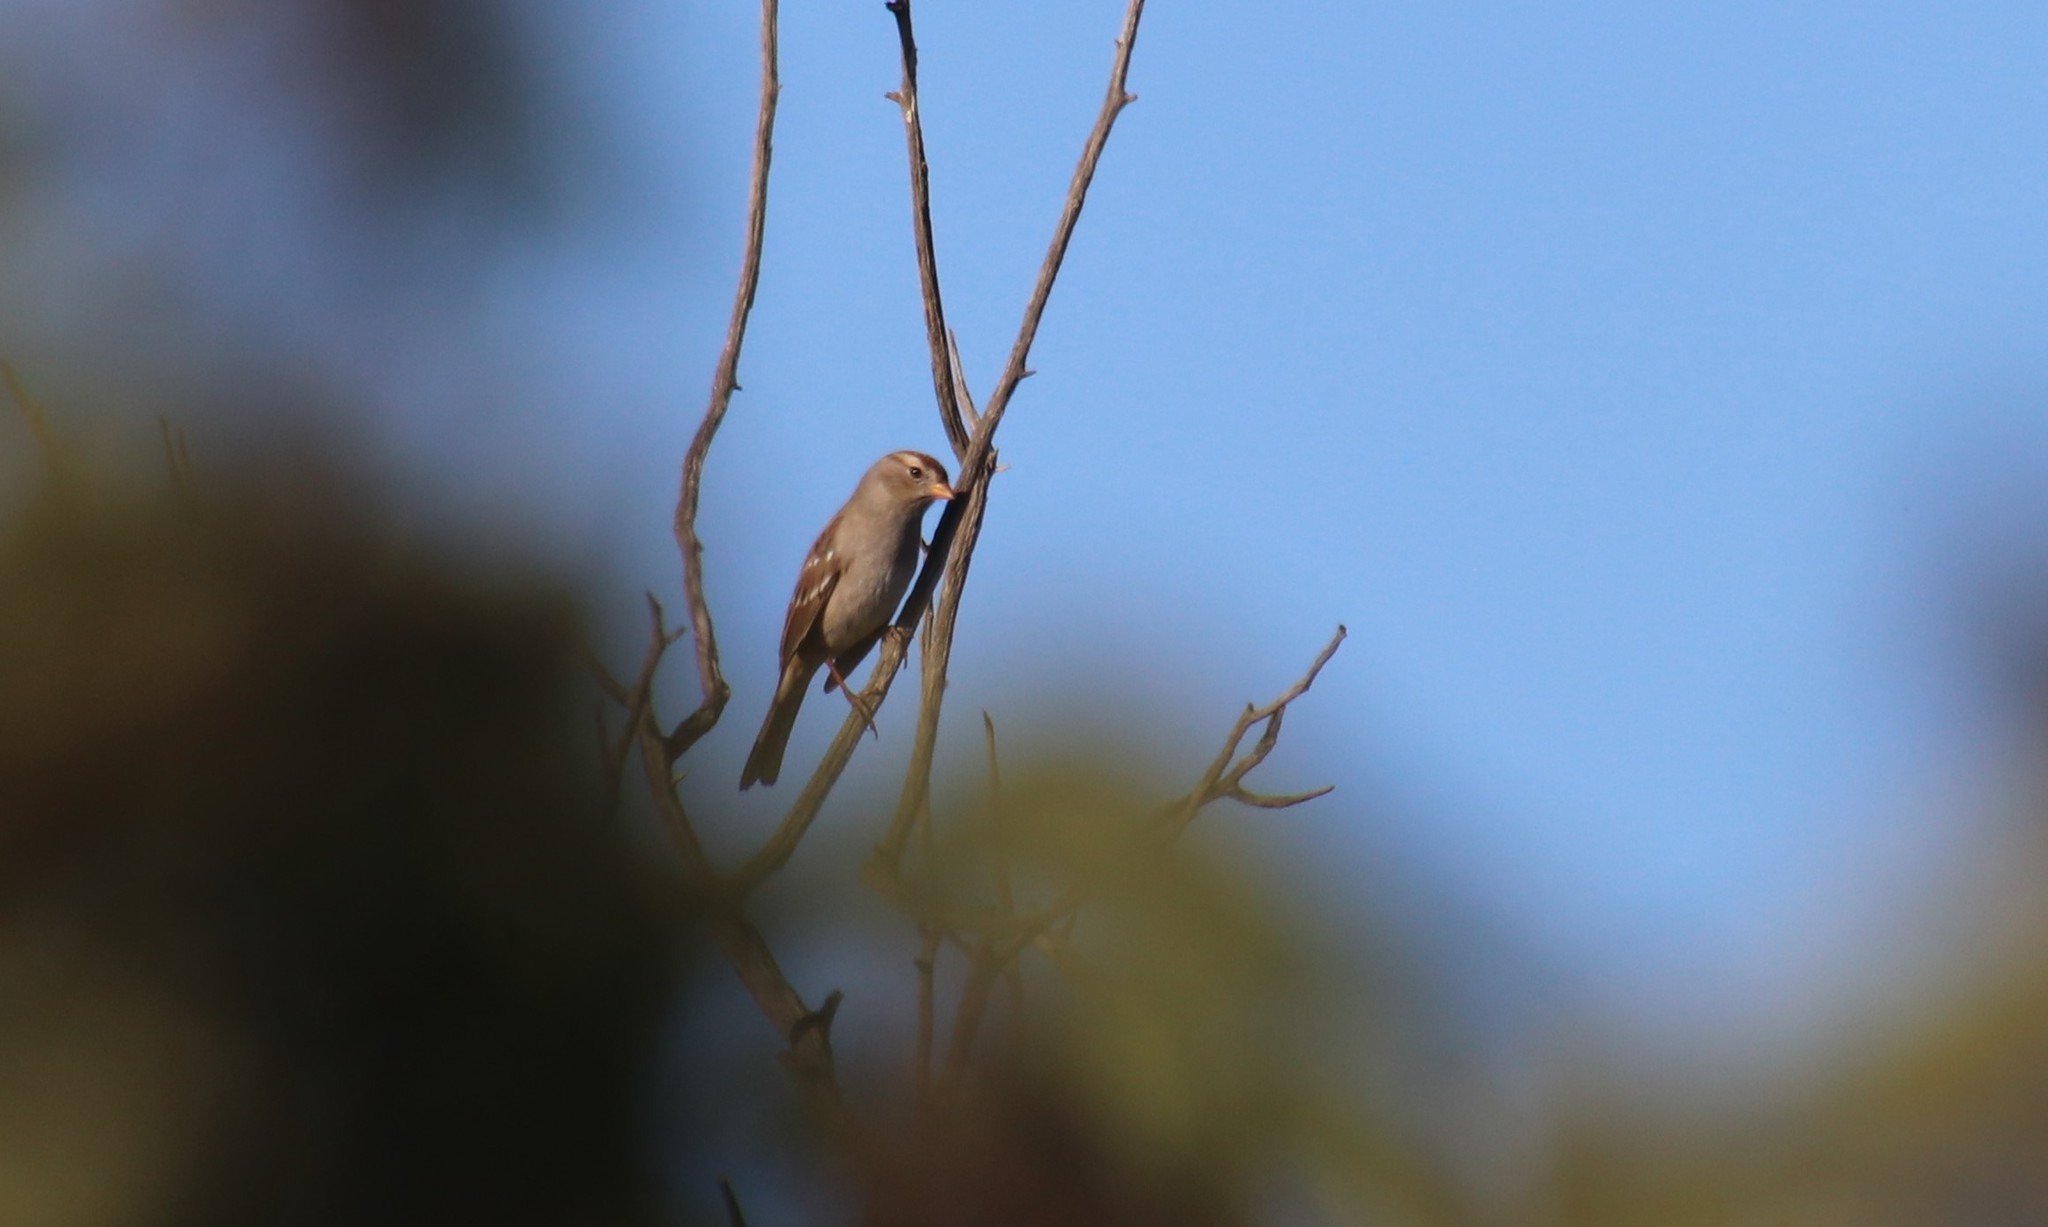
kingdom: Animalia
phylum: Chordata
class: Aves
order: Passeriformes
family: Passerellidae
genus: Zonotrichia
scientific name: Zonotrichia leucophrys
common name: White-crowned sparrow
